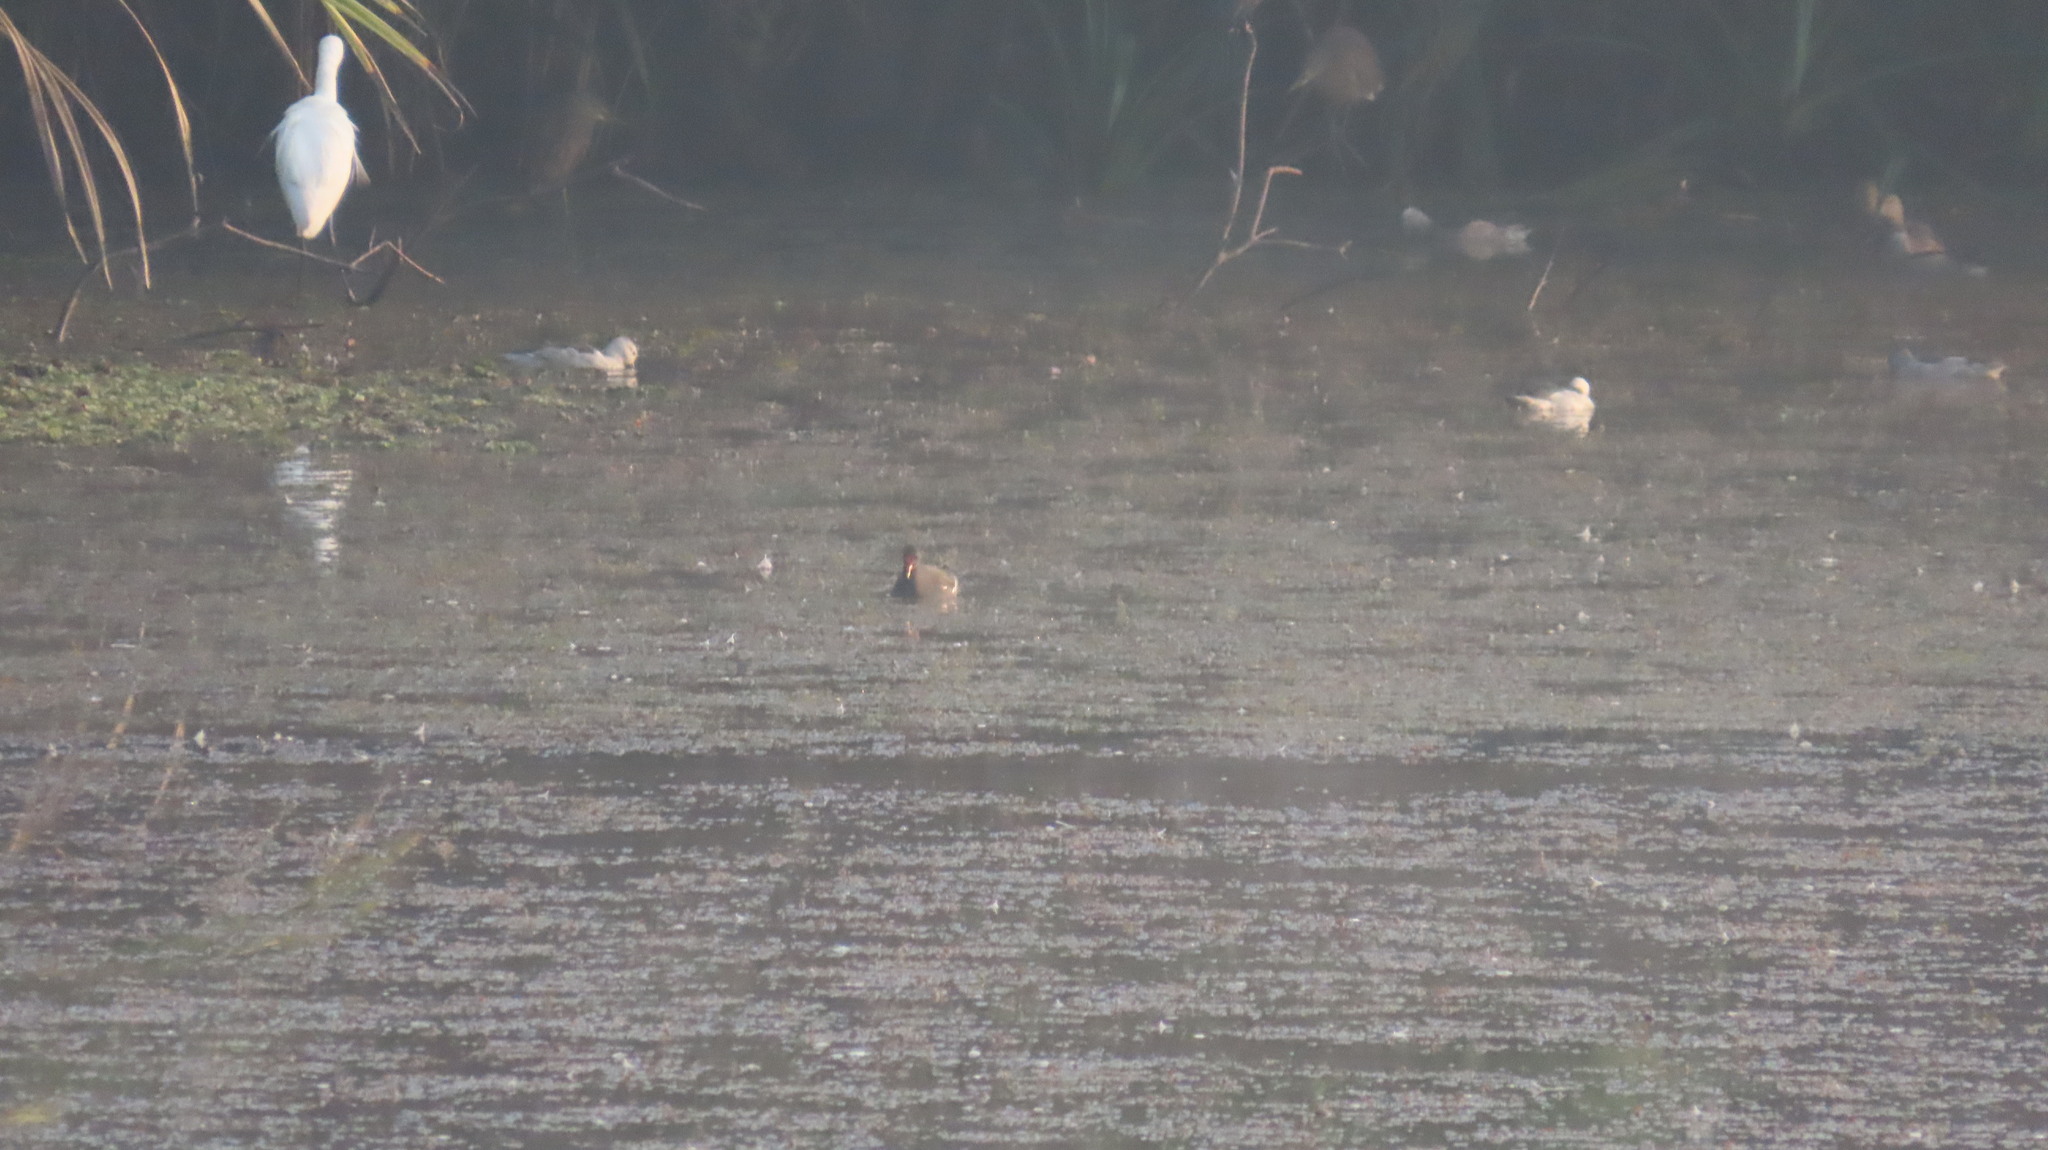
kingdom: Animalia
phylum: Chordata
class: Aves
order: Gruiformes
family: Rallidae
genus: Gallinula
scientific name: Gallinula chloropus
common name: Common moorhen
